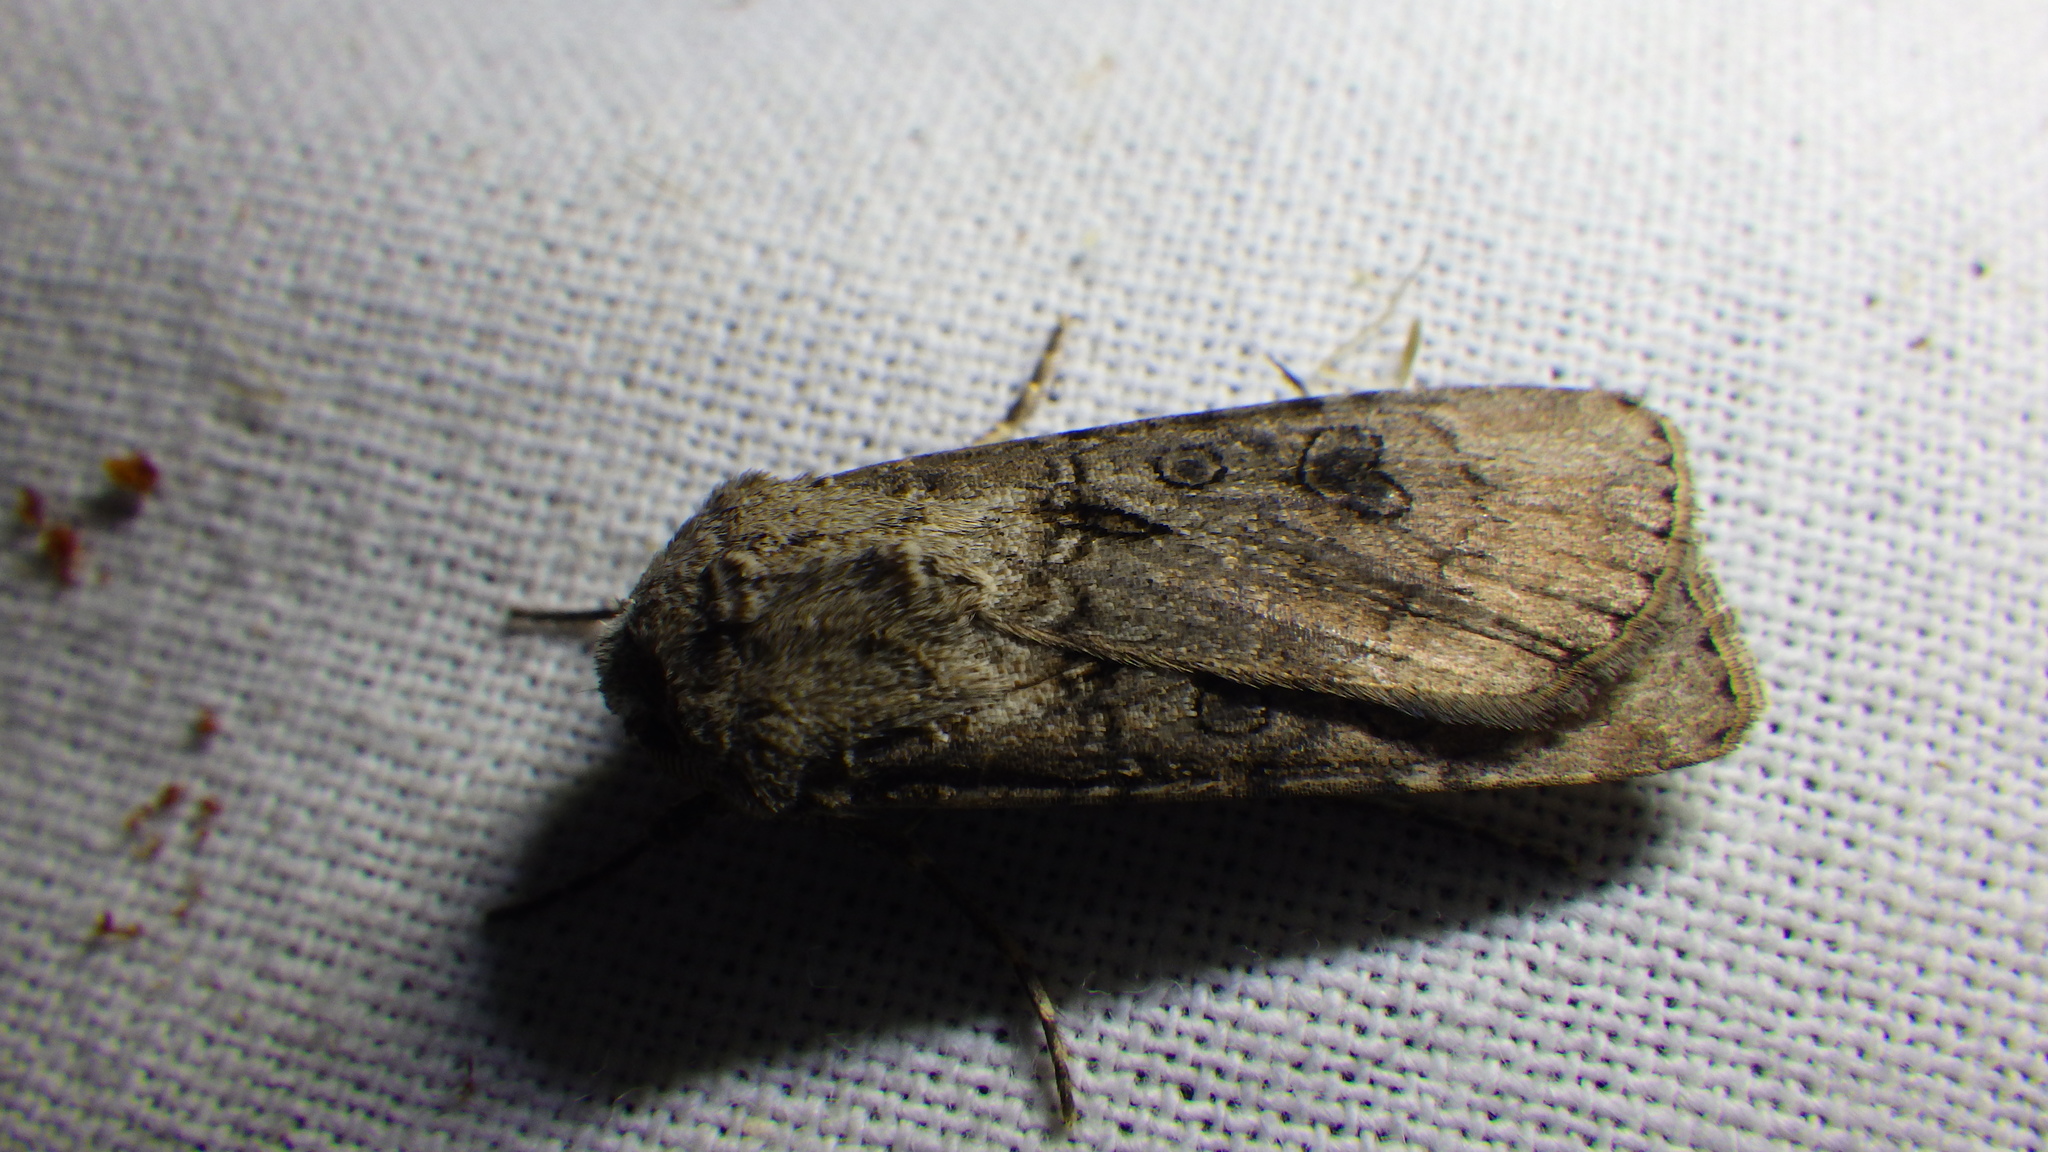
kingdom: Animalia
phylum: Arthropoda
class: Insecta
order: Lepidoptera
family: Noctuidae
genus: Agrotis
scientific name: Agrotis segetum
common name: Turnip moth
